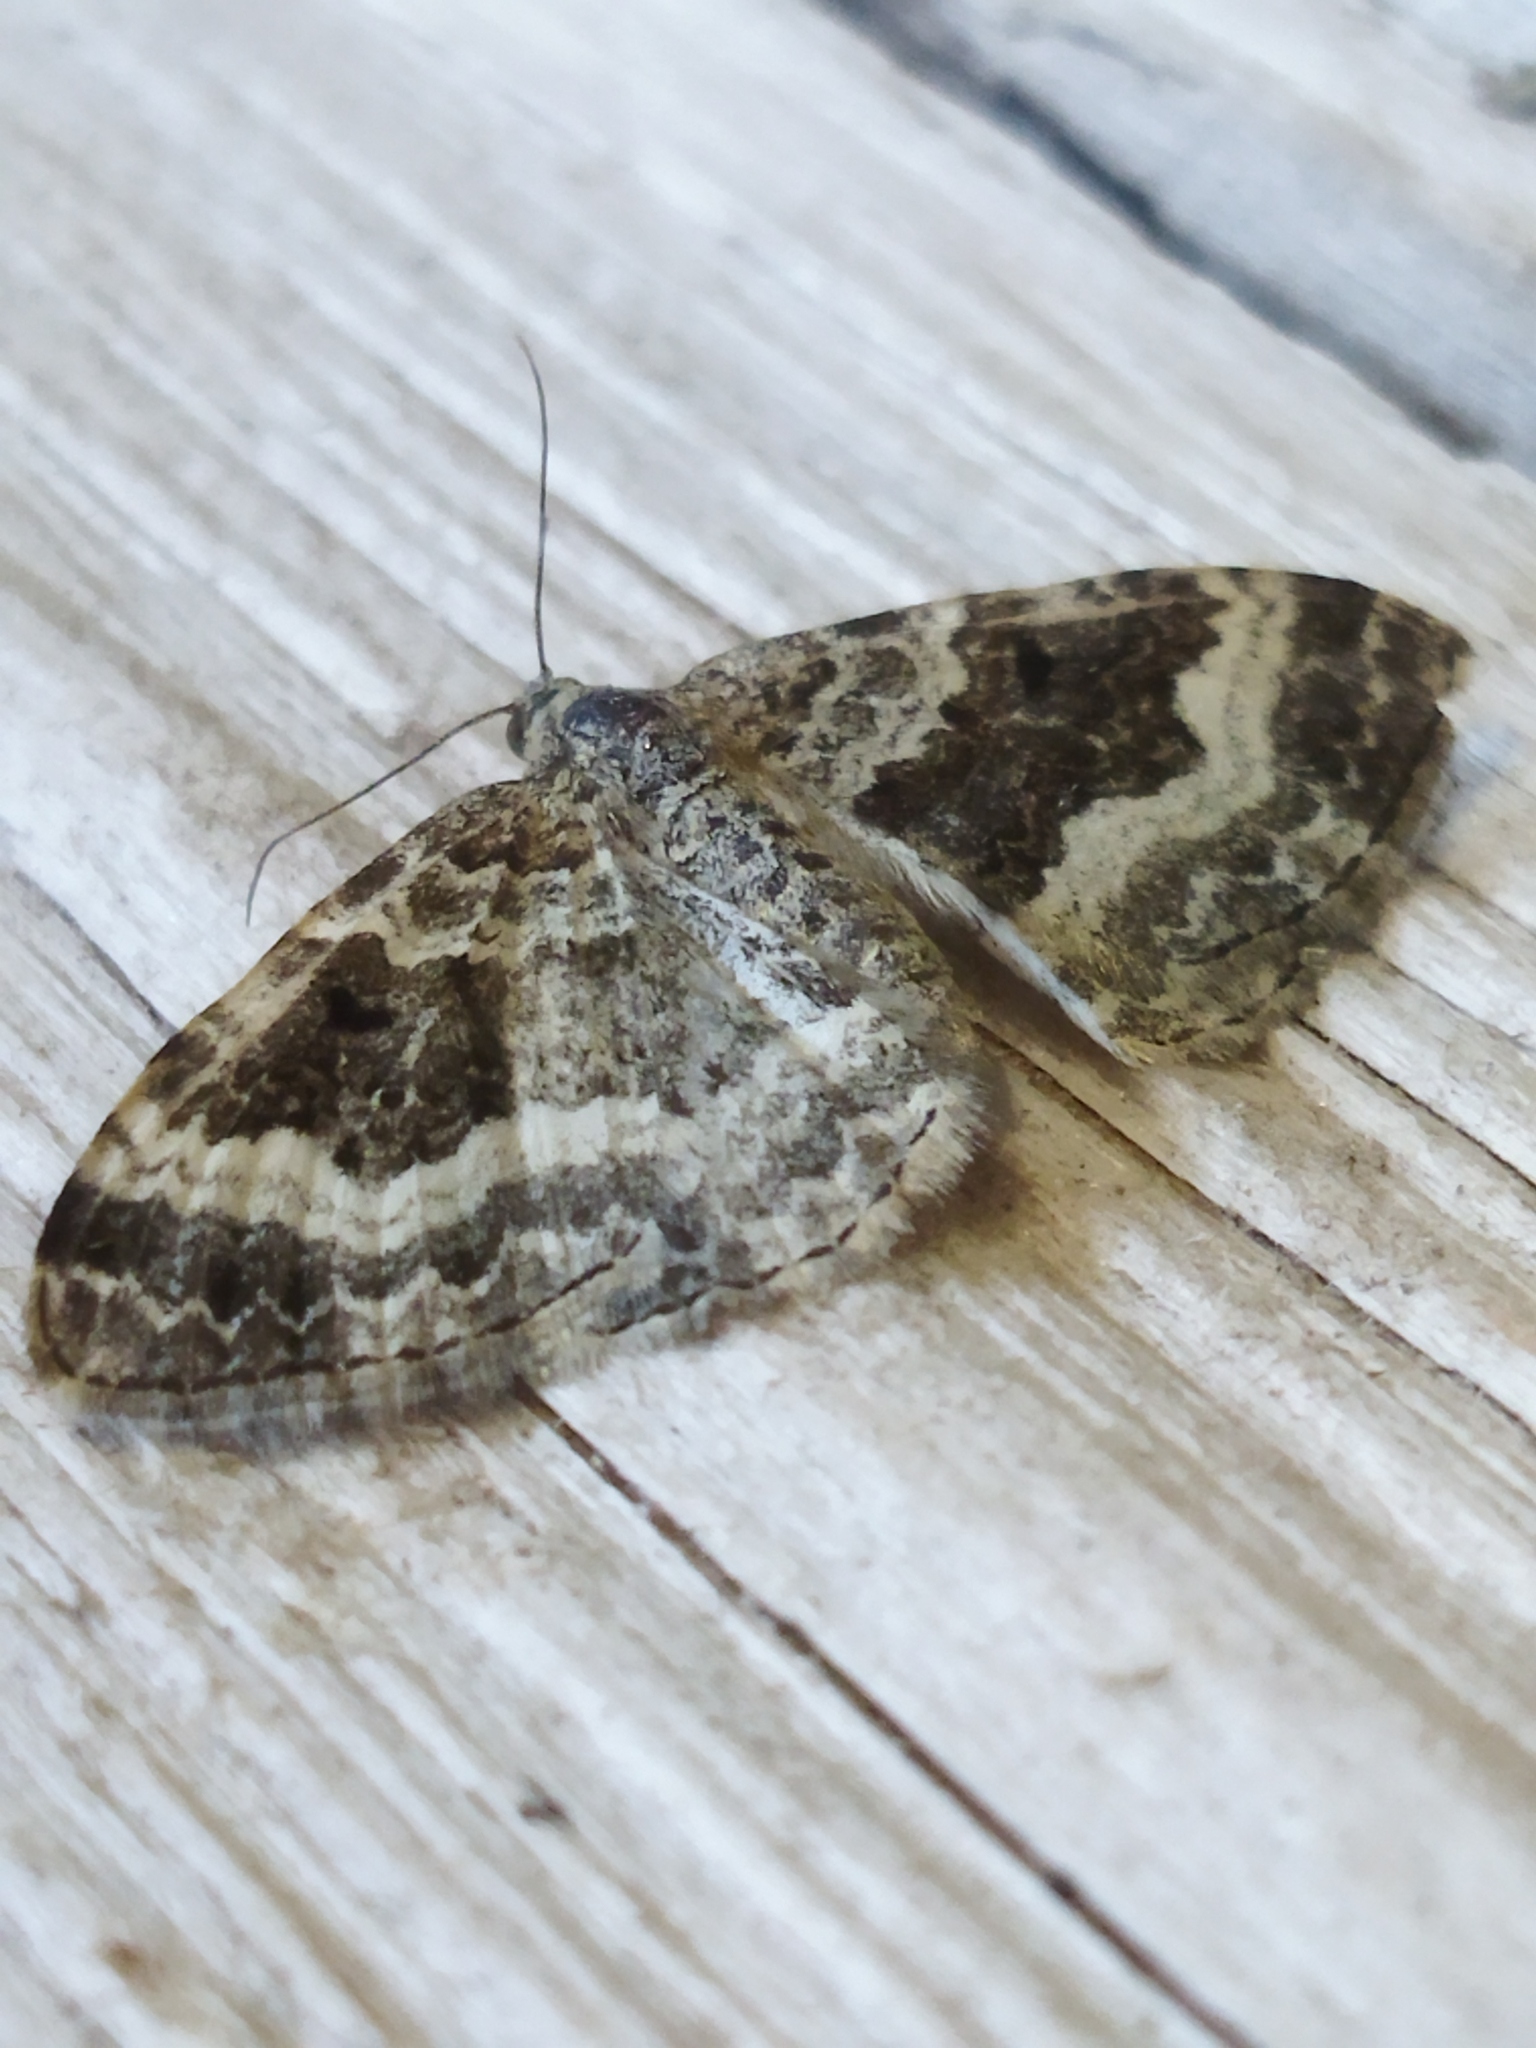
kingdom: Animalia
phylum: Arthropoda
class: Insecta
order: Lepidoptera
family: Geometridae
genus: Epirrhoe
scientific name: Epirrhoe alternata
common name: Common carpet
